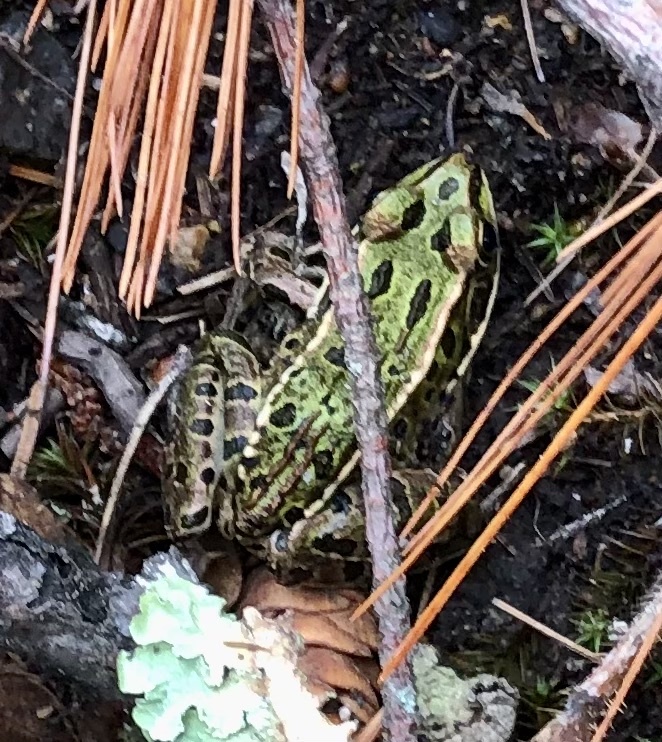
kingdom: Animalia
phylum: Chordata
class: Amphibia
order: Anura
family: Ranidae
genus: Lithobates
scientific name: Lithobates pipiens
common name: Northern leopard frog
